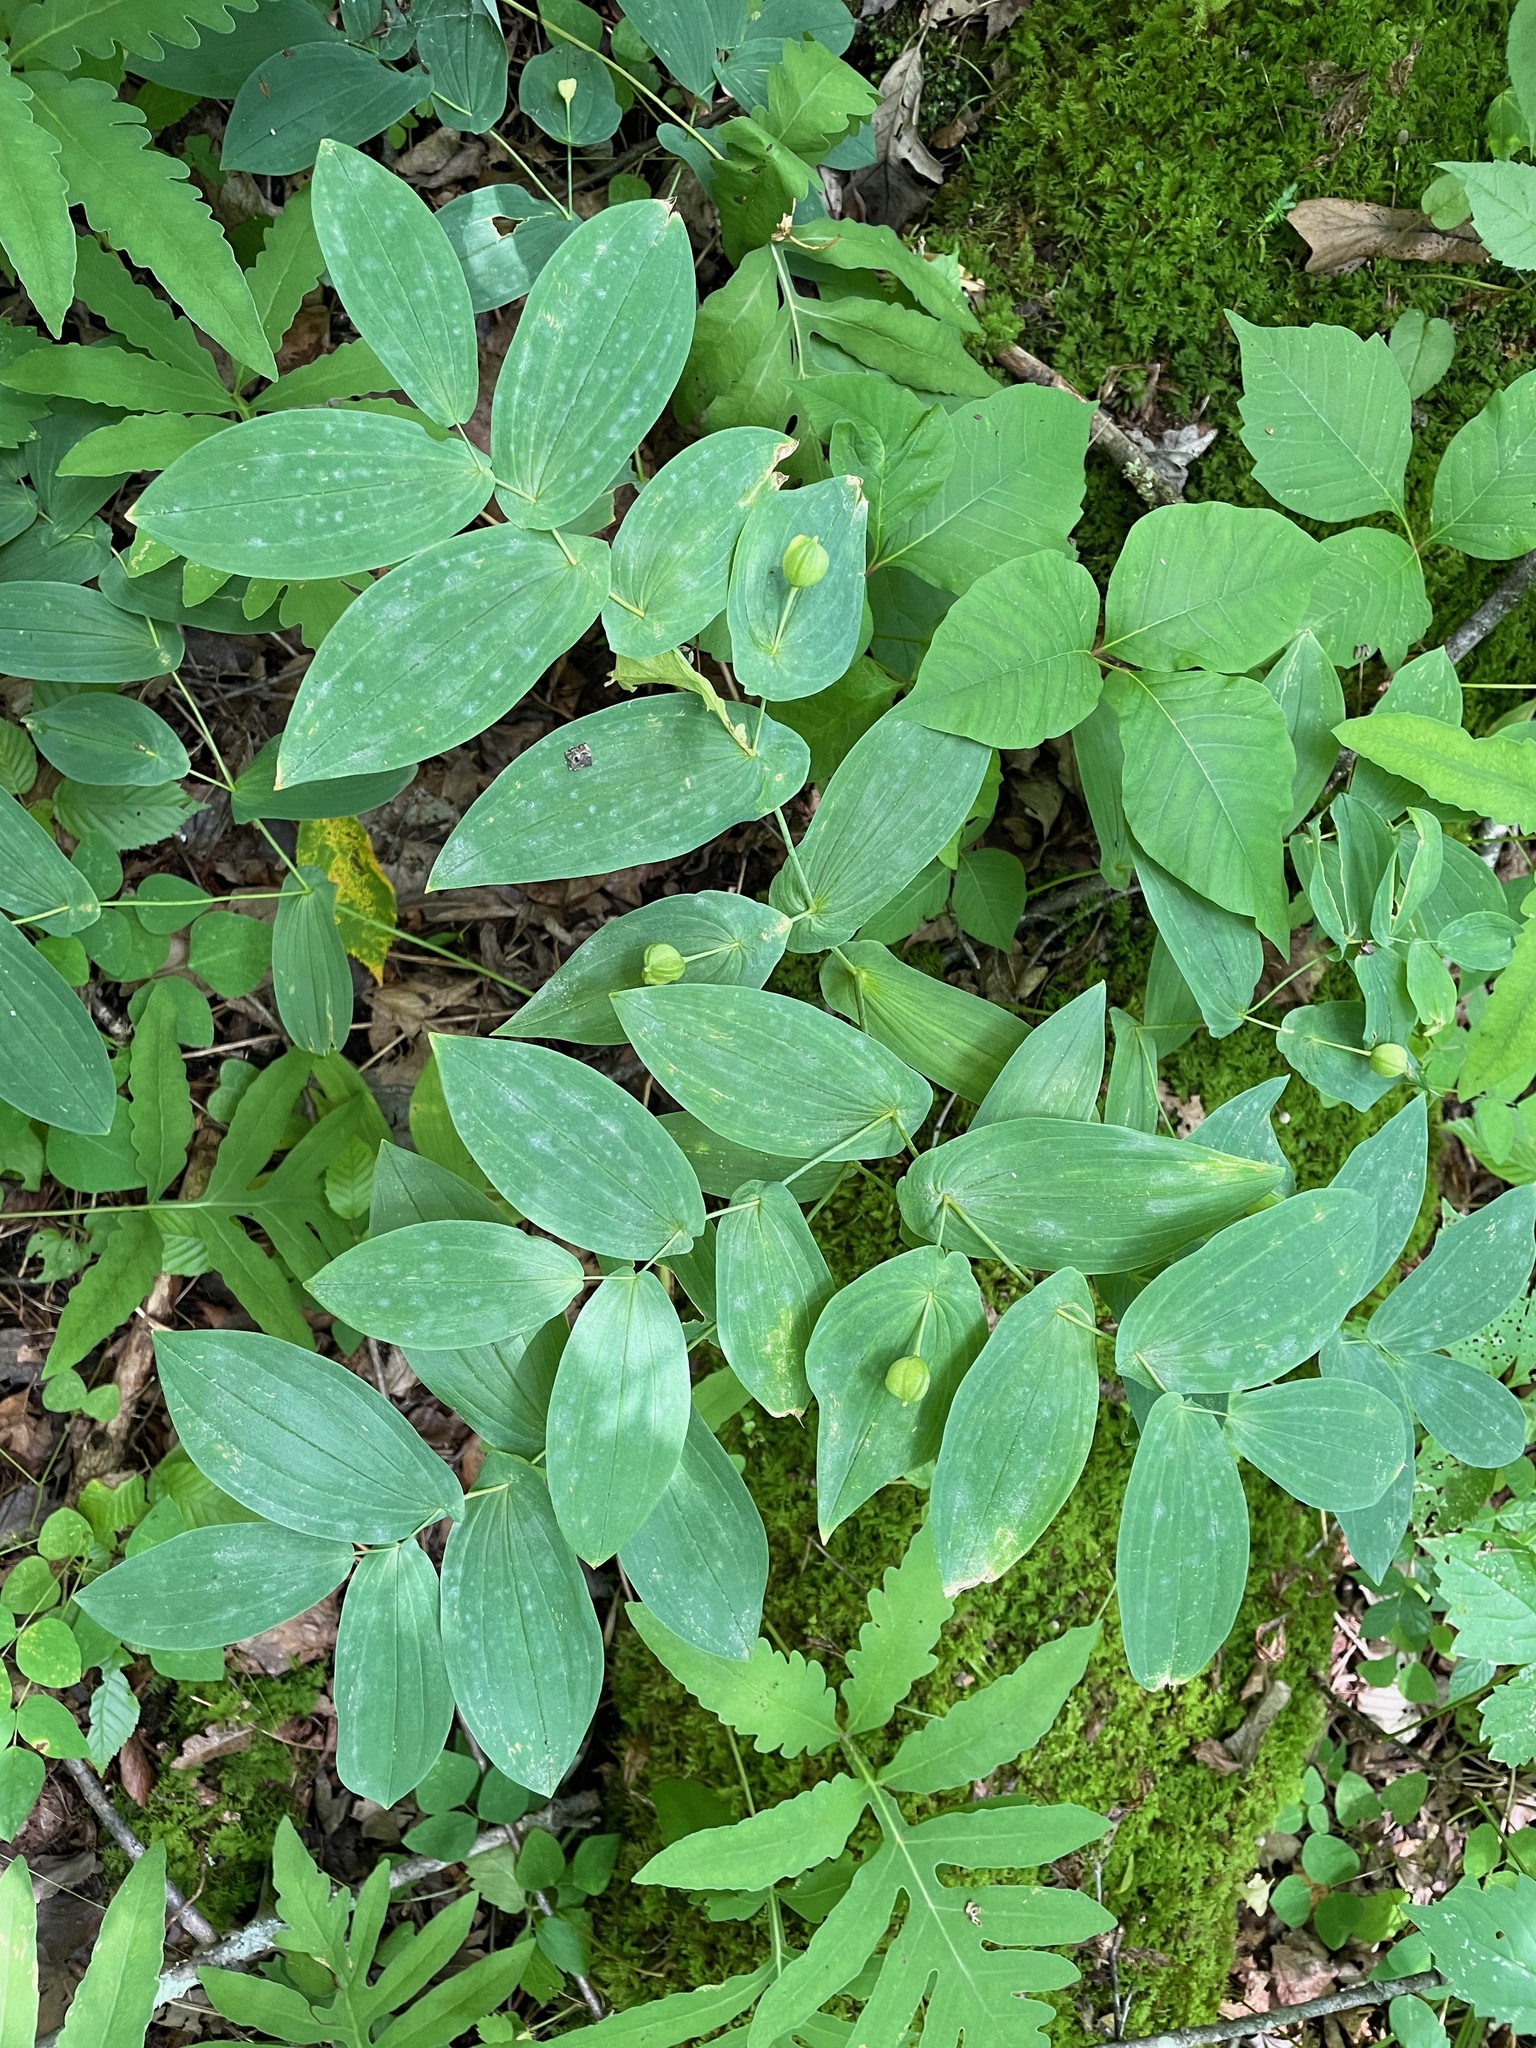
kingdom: Plantae
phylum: Tracheophyta
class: Liliopsida
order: Liliales
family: Colchicaceae
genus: Uvularia
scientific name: Uvularia grandiflora
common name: Bellwort
